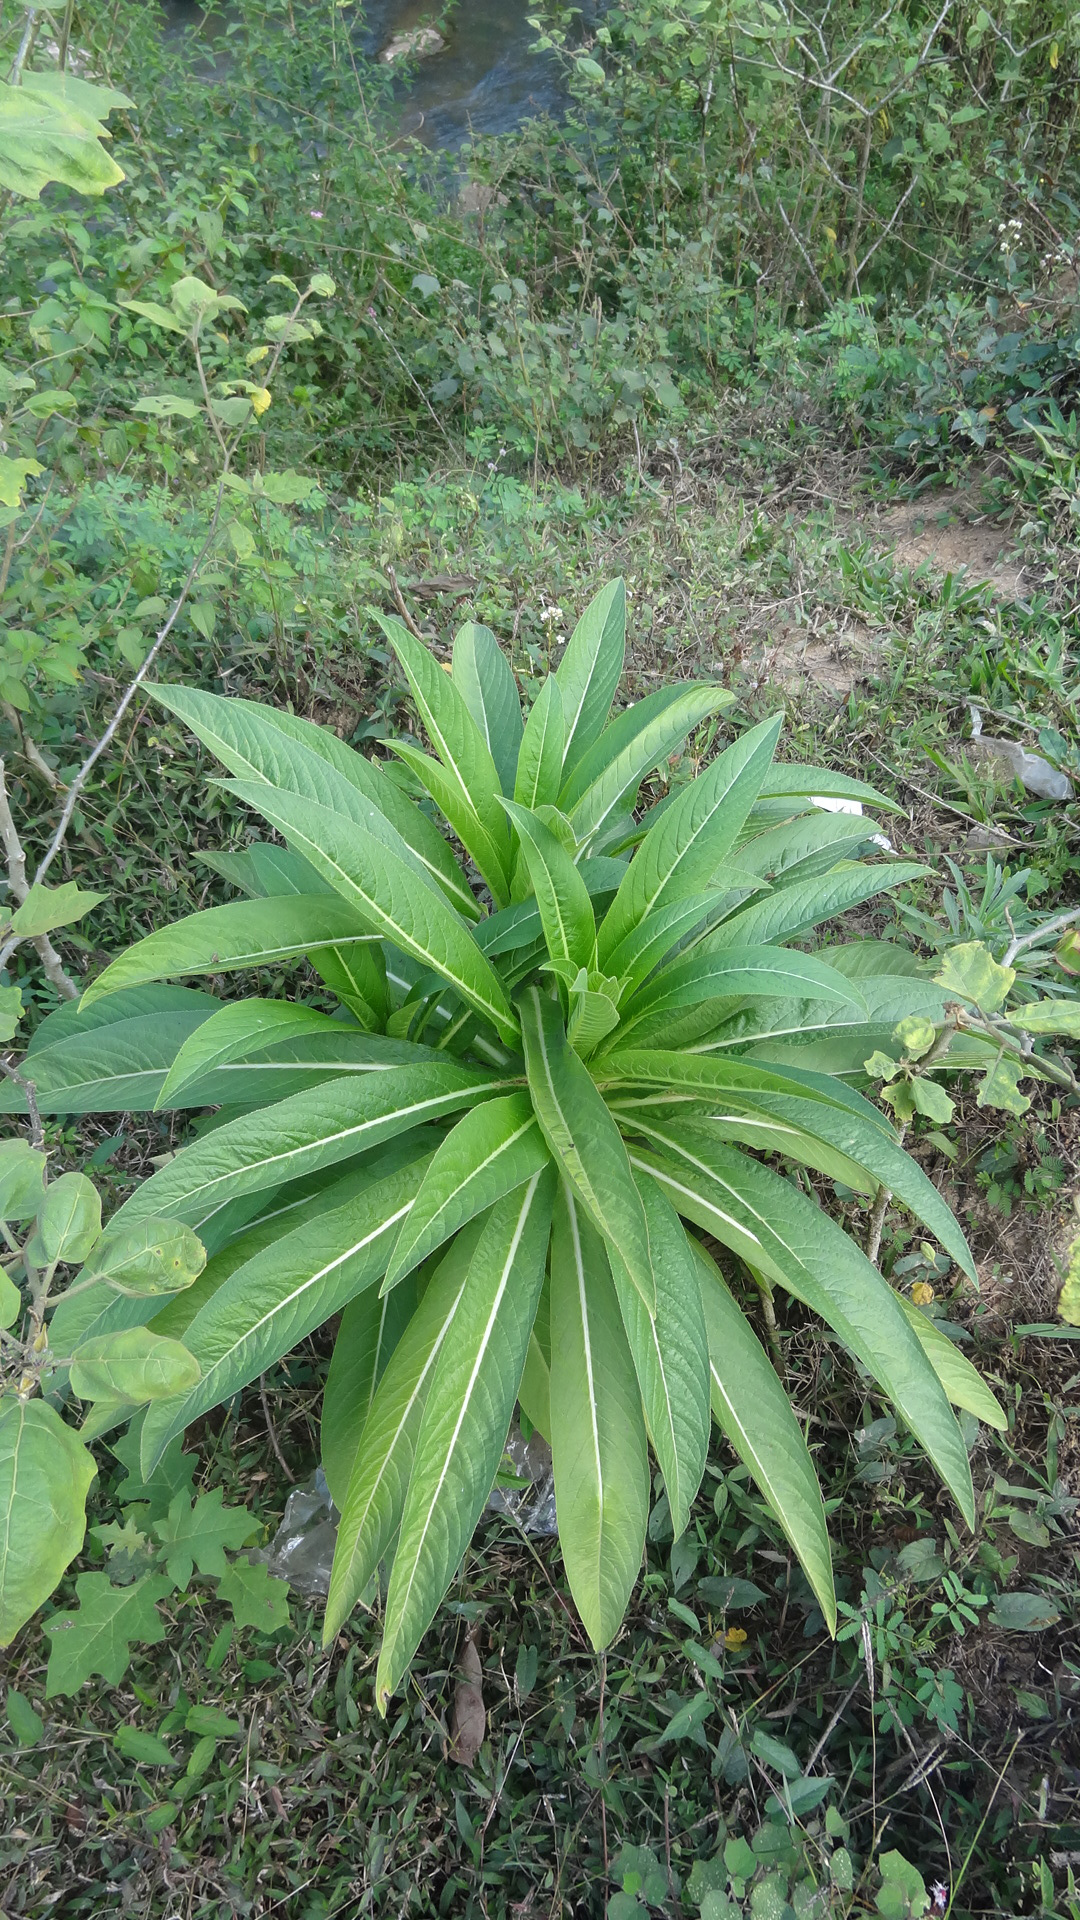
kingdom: Plantae
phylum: Tracheophyta
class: Magnoliopsida
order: Asterales
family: Campanulaceae
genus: Lobelia
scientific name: Lobelia nicotianifolia
